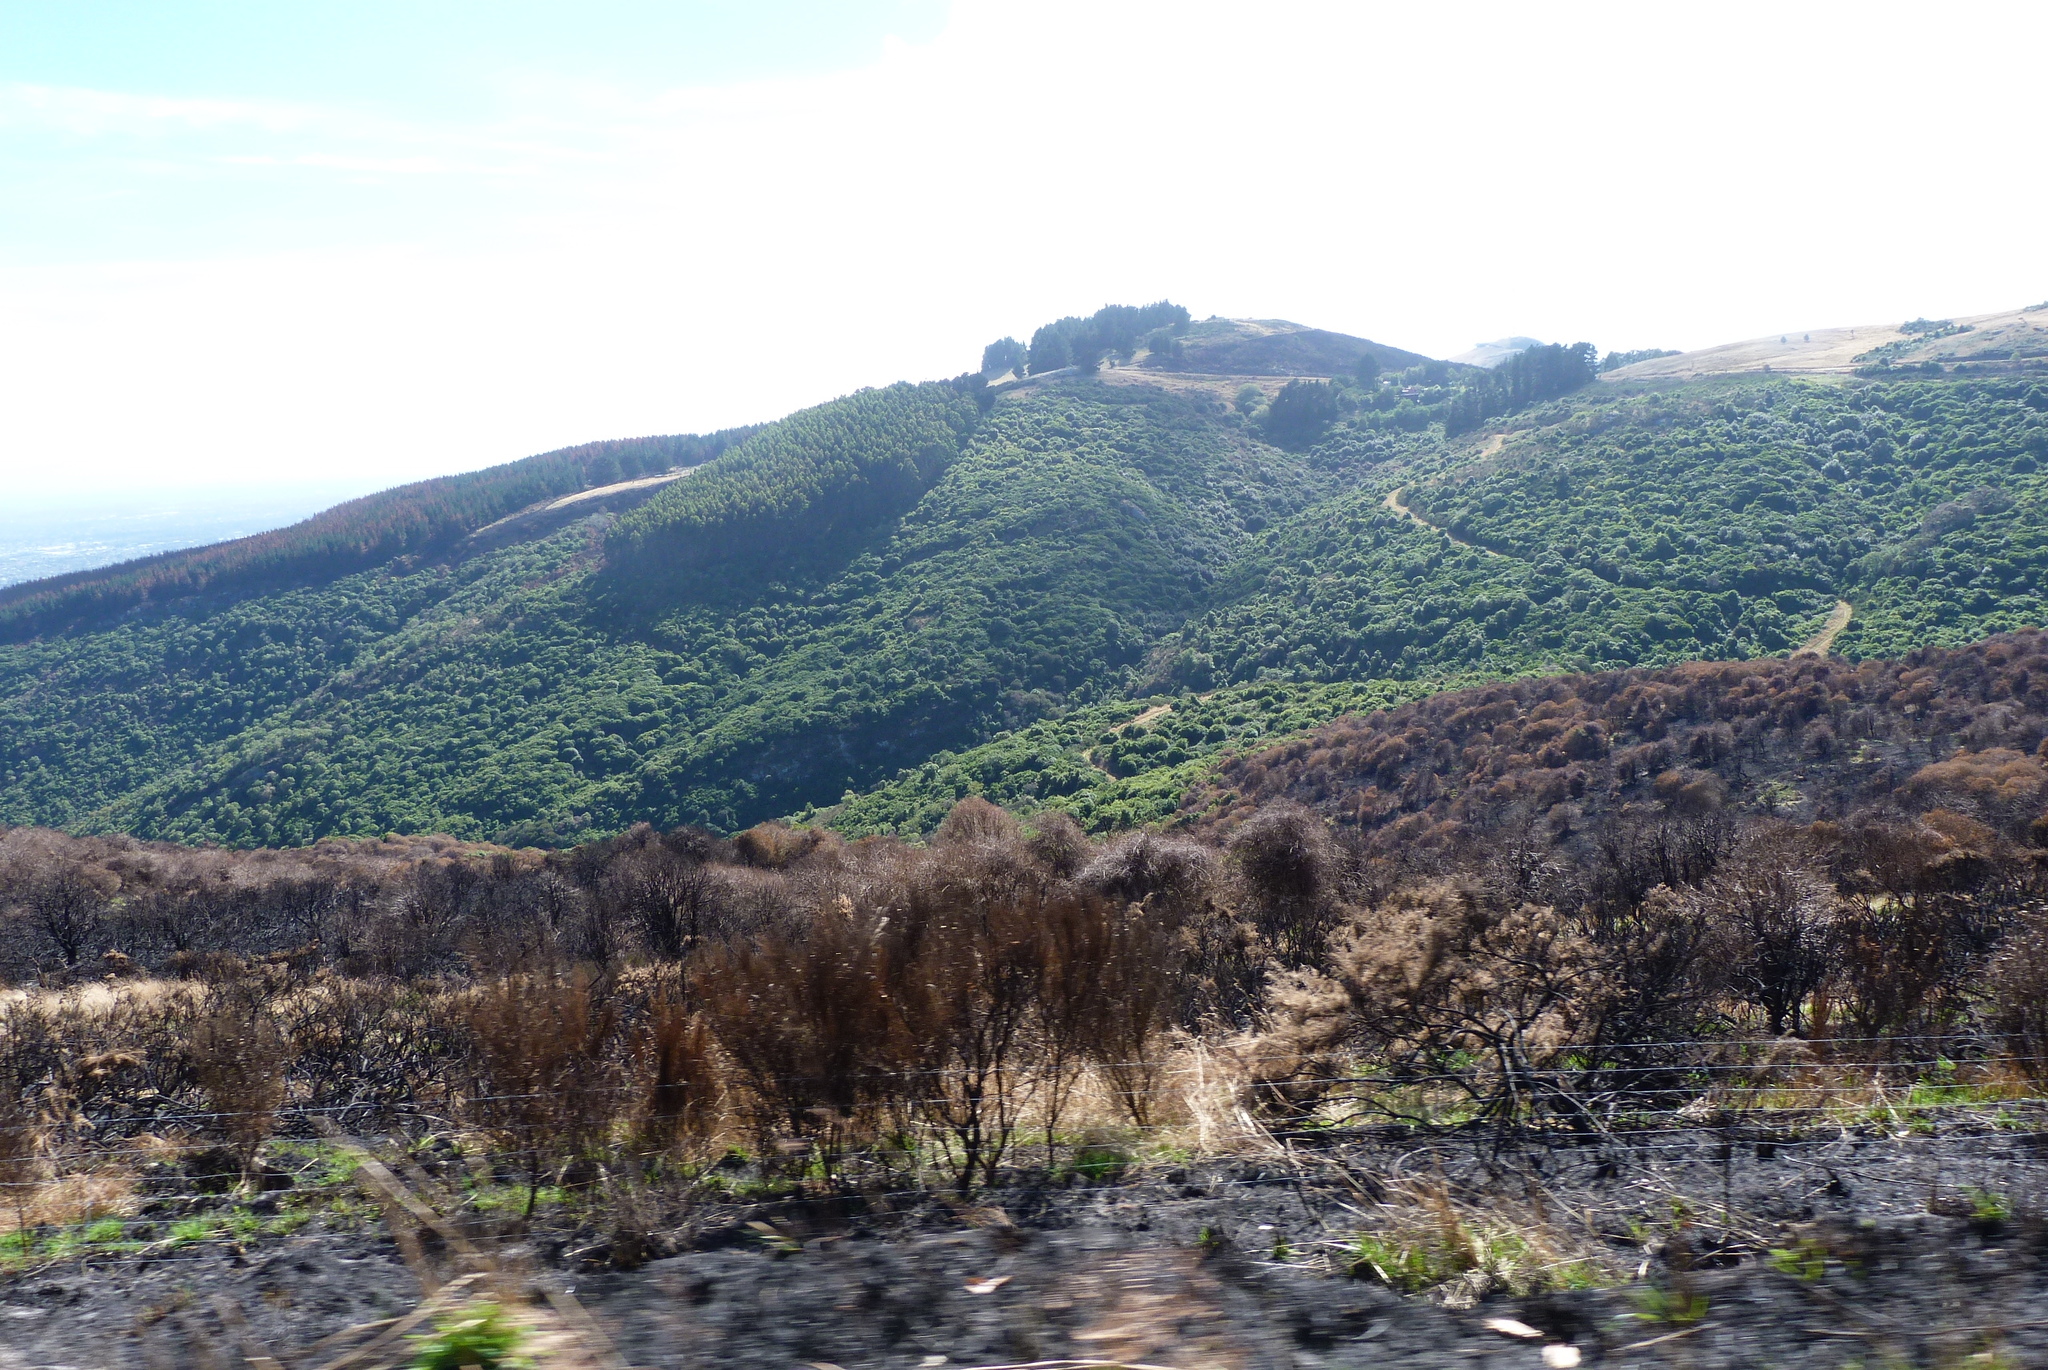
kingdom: Plantae
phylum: Tracheophyta
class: Magnoliopsida
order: Fabales
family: Fabaceae
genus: Cytisus
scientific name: Cytisus scoparius
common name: Scotch broom
